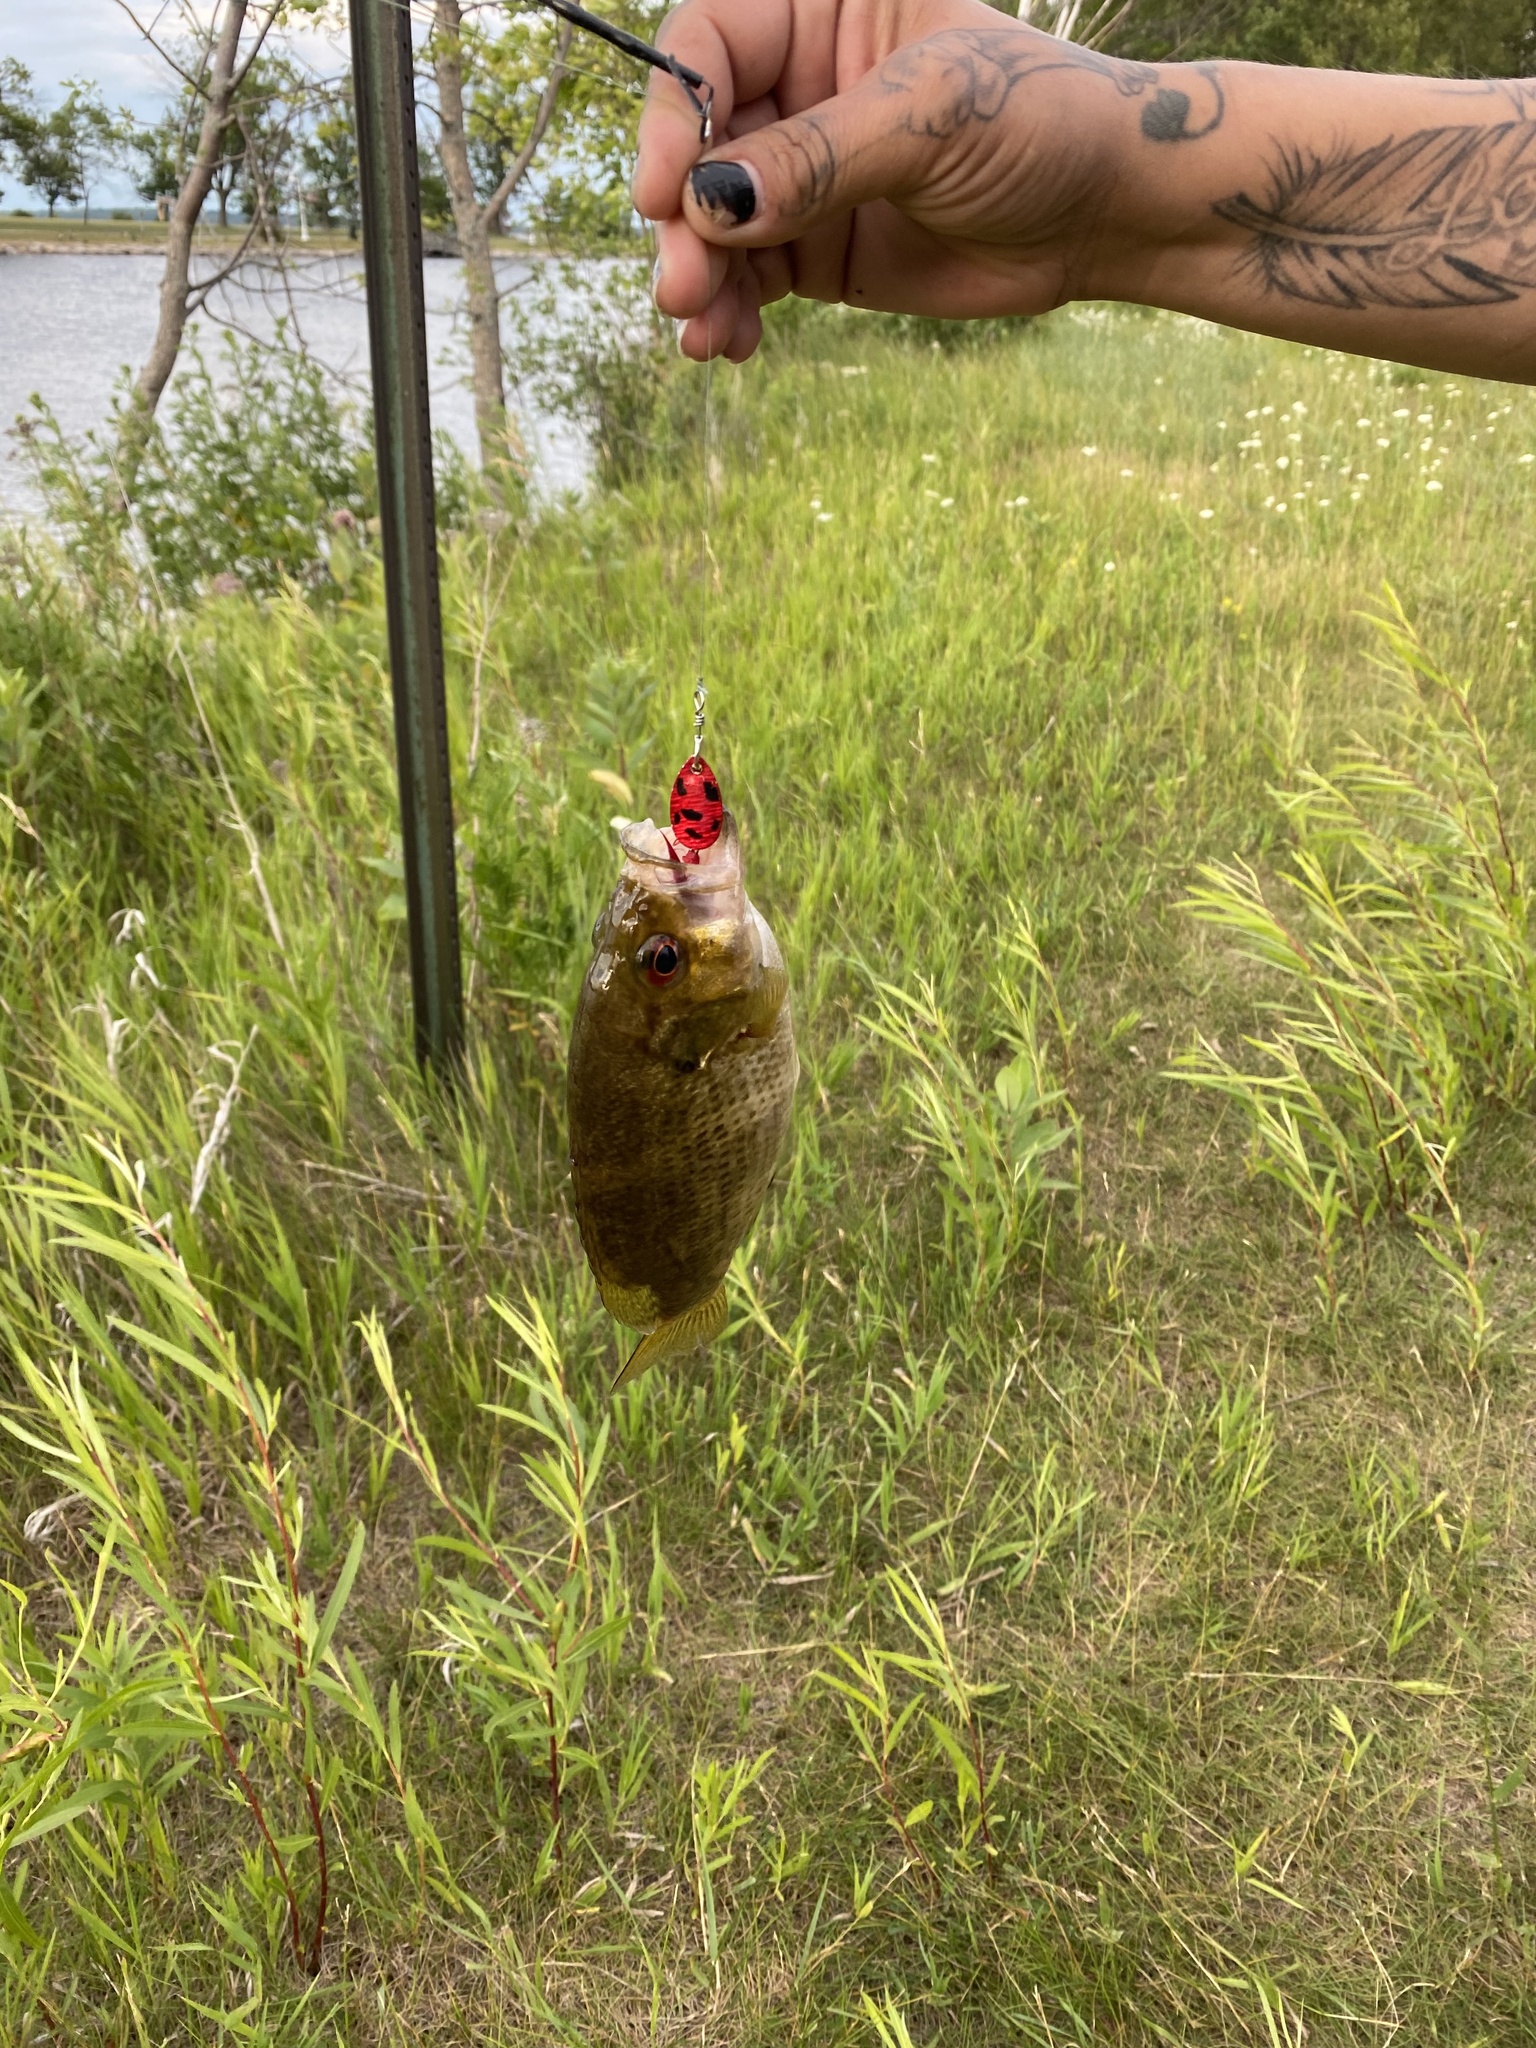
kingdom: Animalia
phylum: Chordata
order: Perciformes
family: Centrarchidae
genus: Ambloplites
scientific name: Ambloplites rupestris
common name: Rock bass
